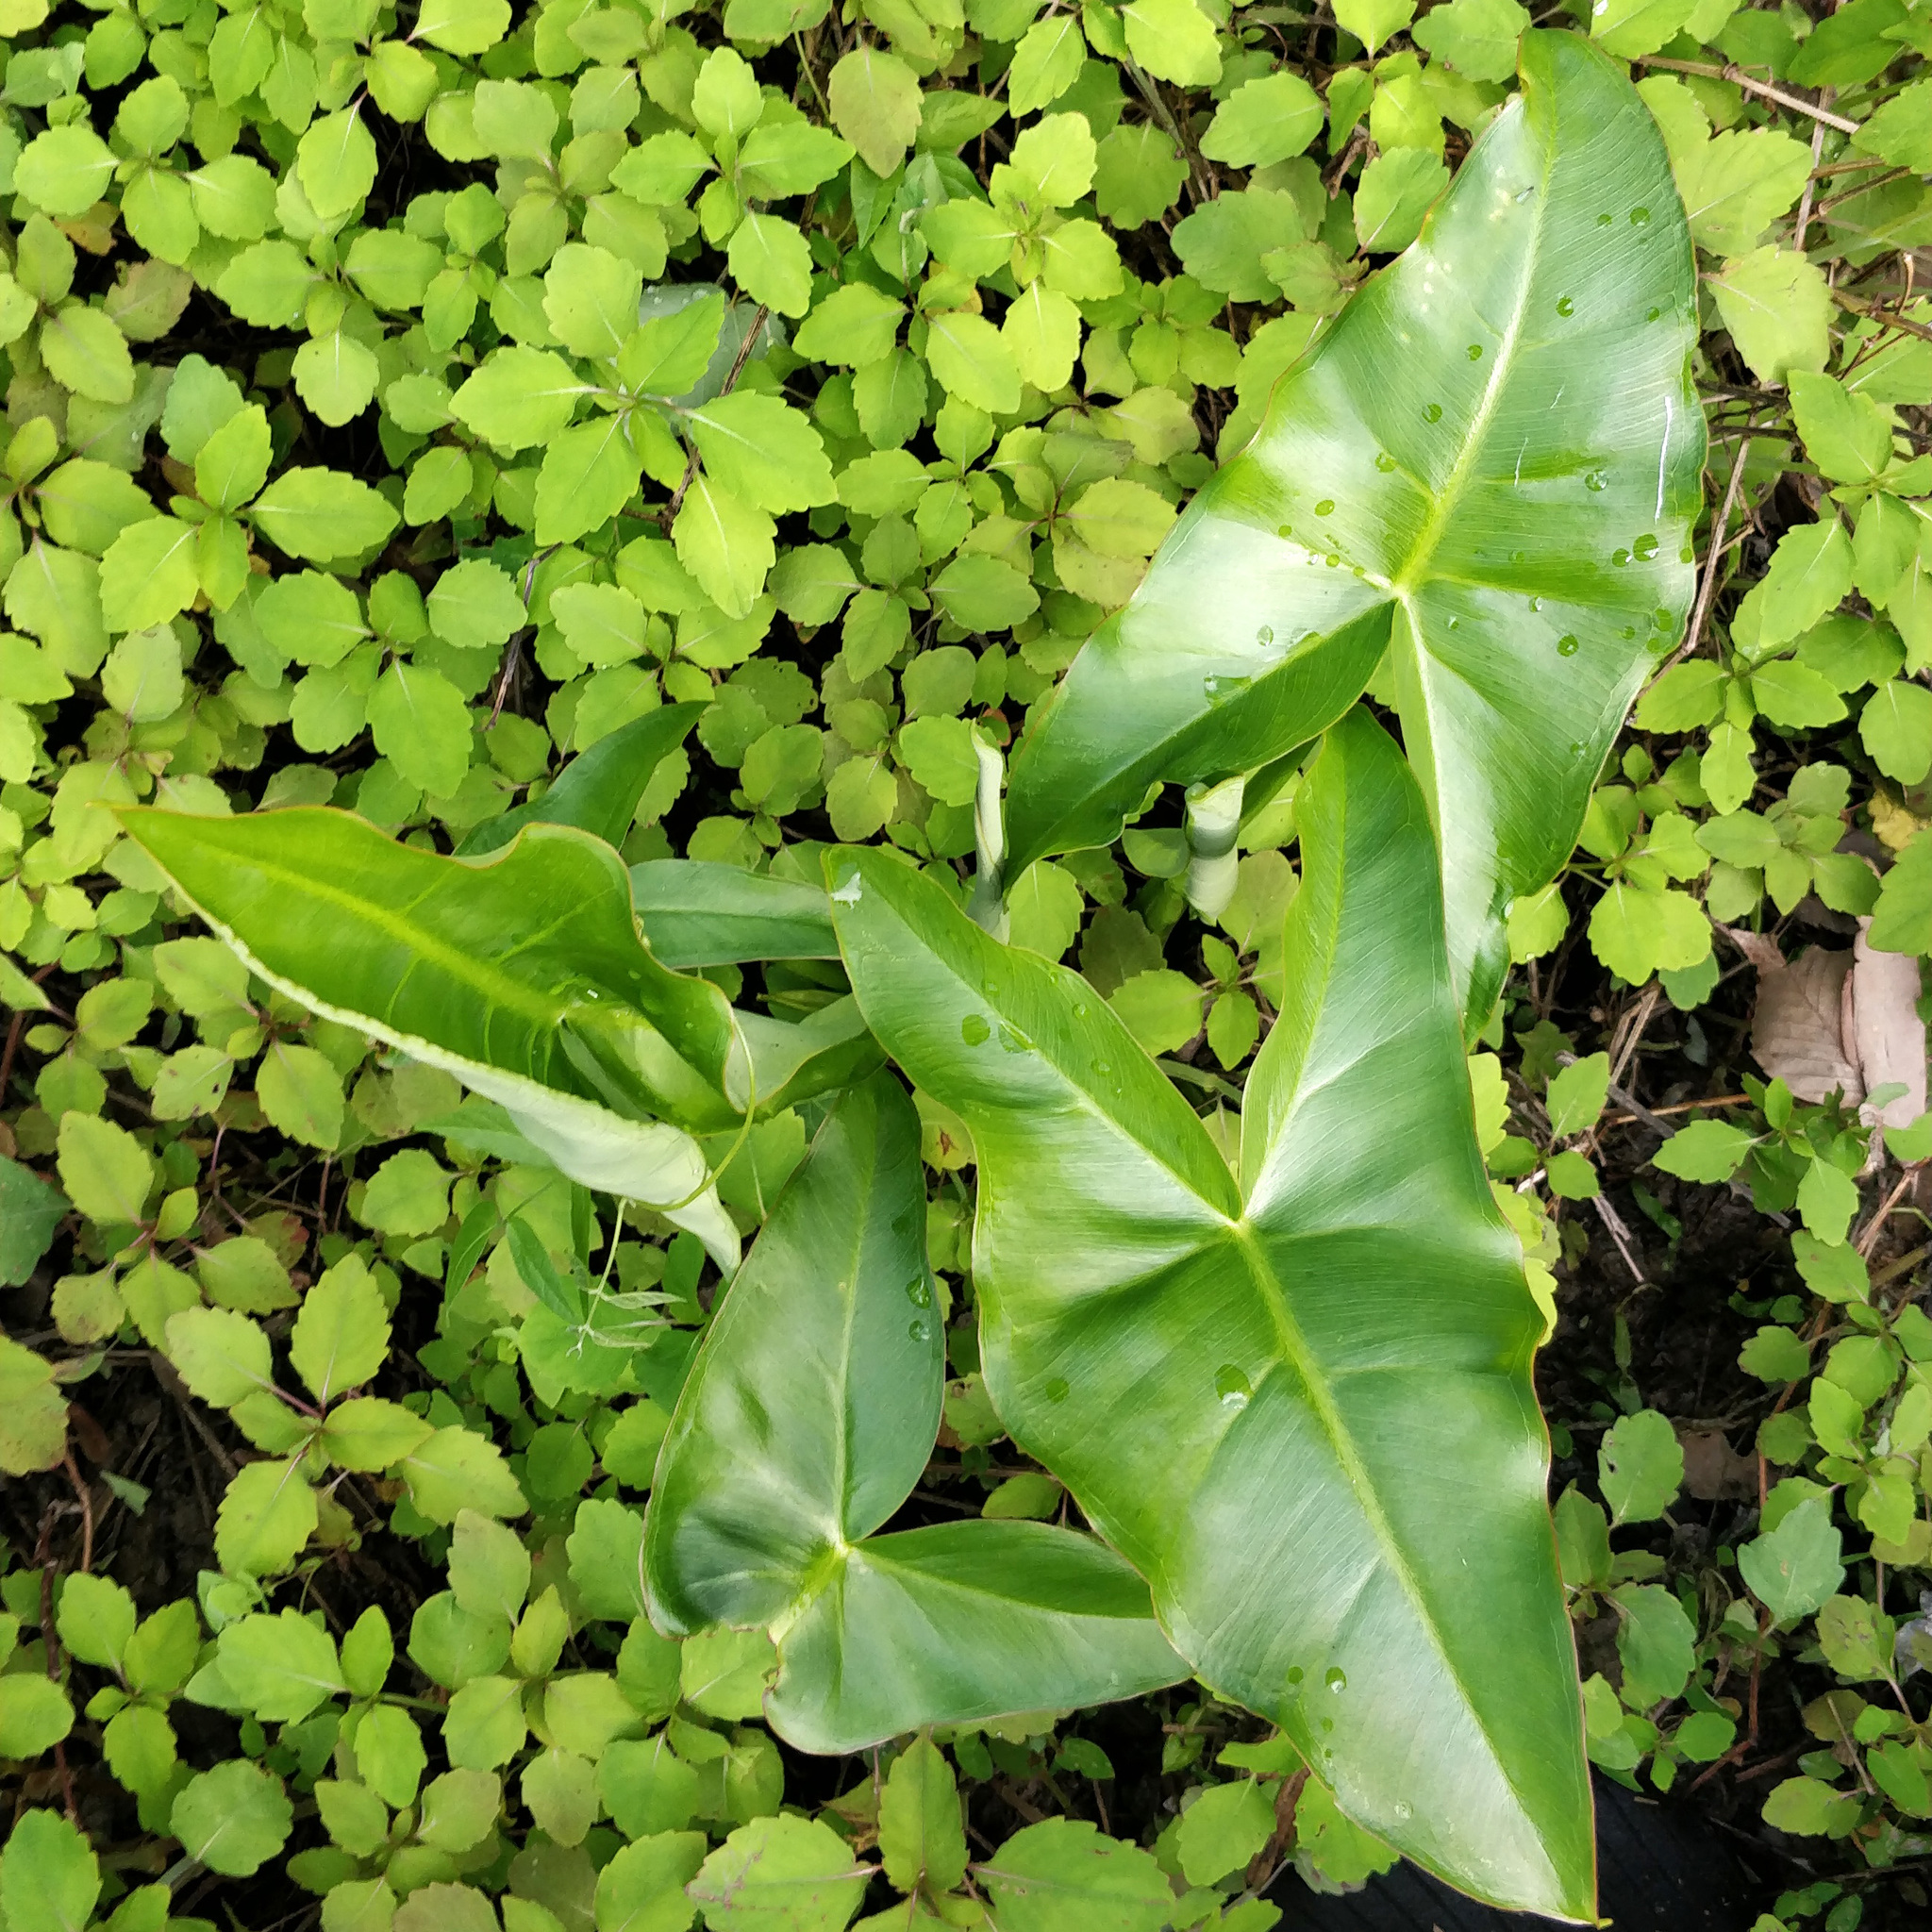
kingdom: Plantae
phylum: Tracheophyta
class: Liliopsida
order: Alismatales
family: Araceae
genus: Peltandra
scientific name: Peltandra virginica
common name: Arrow arum
